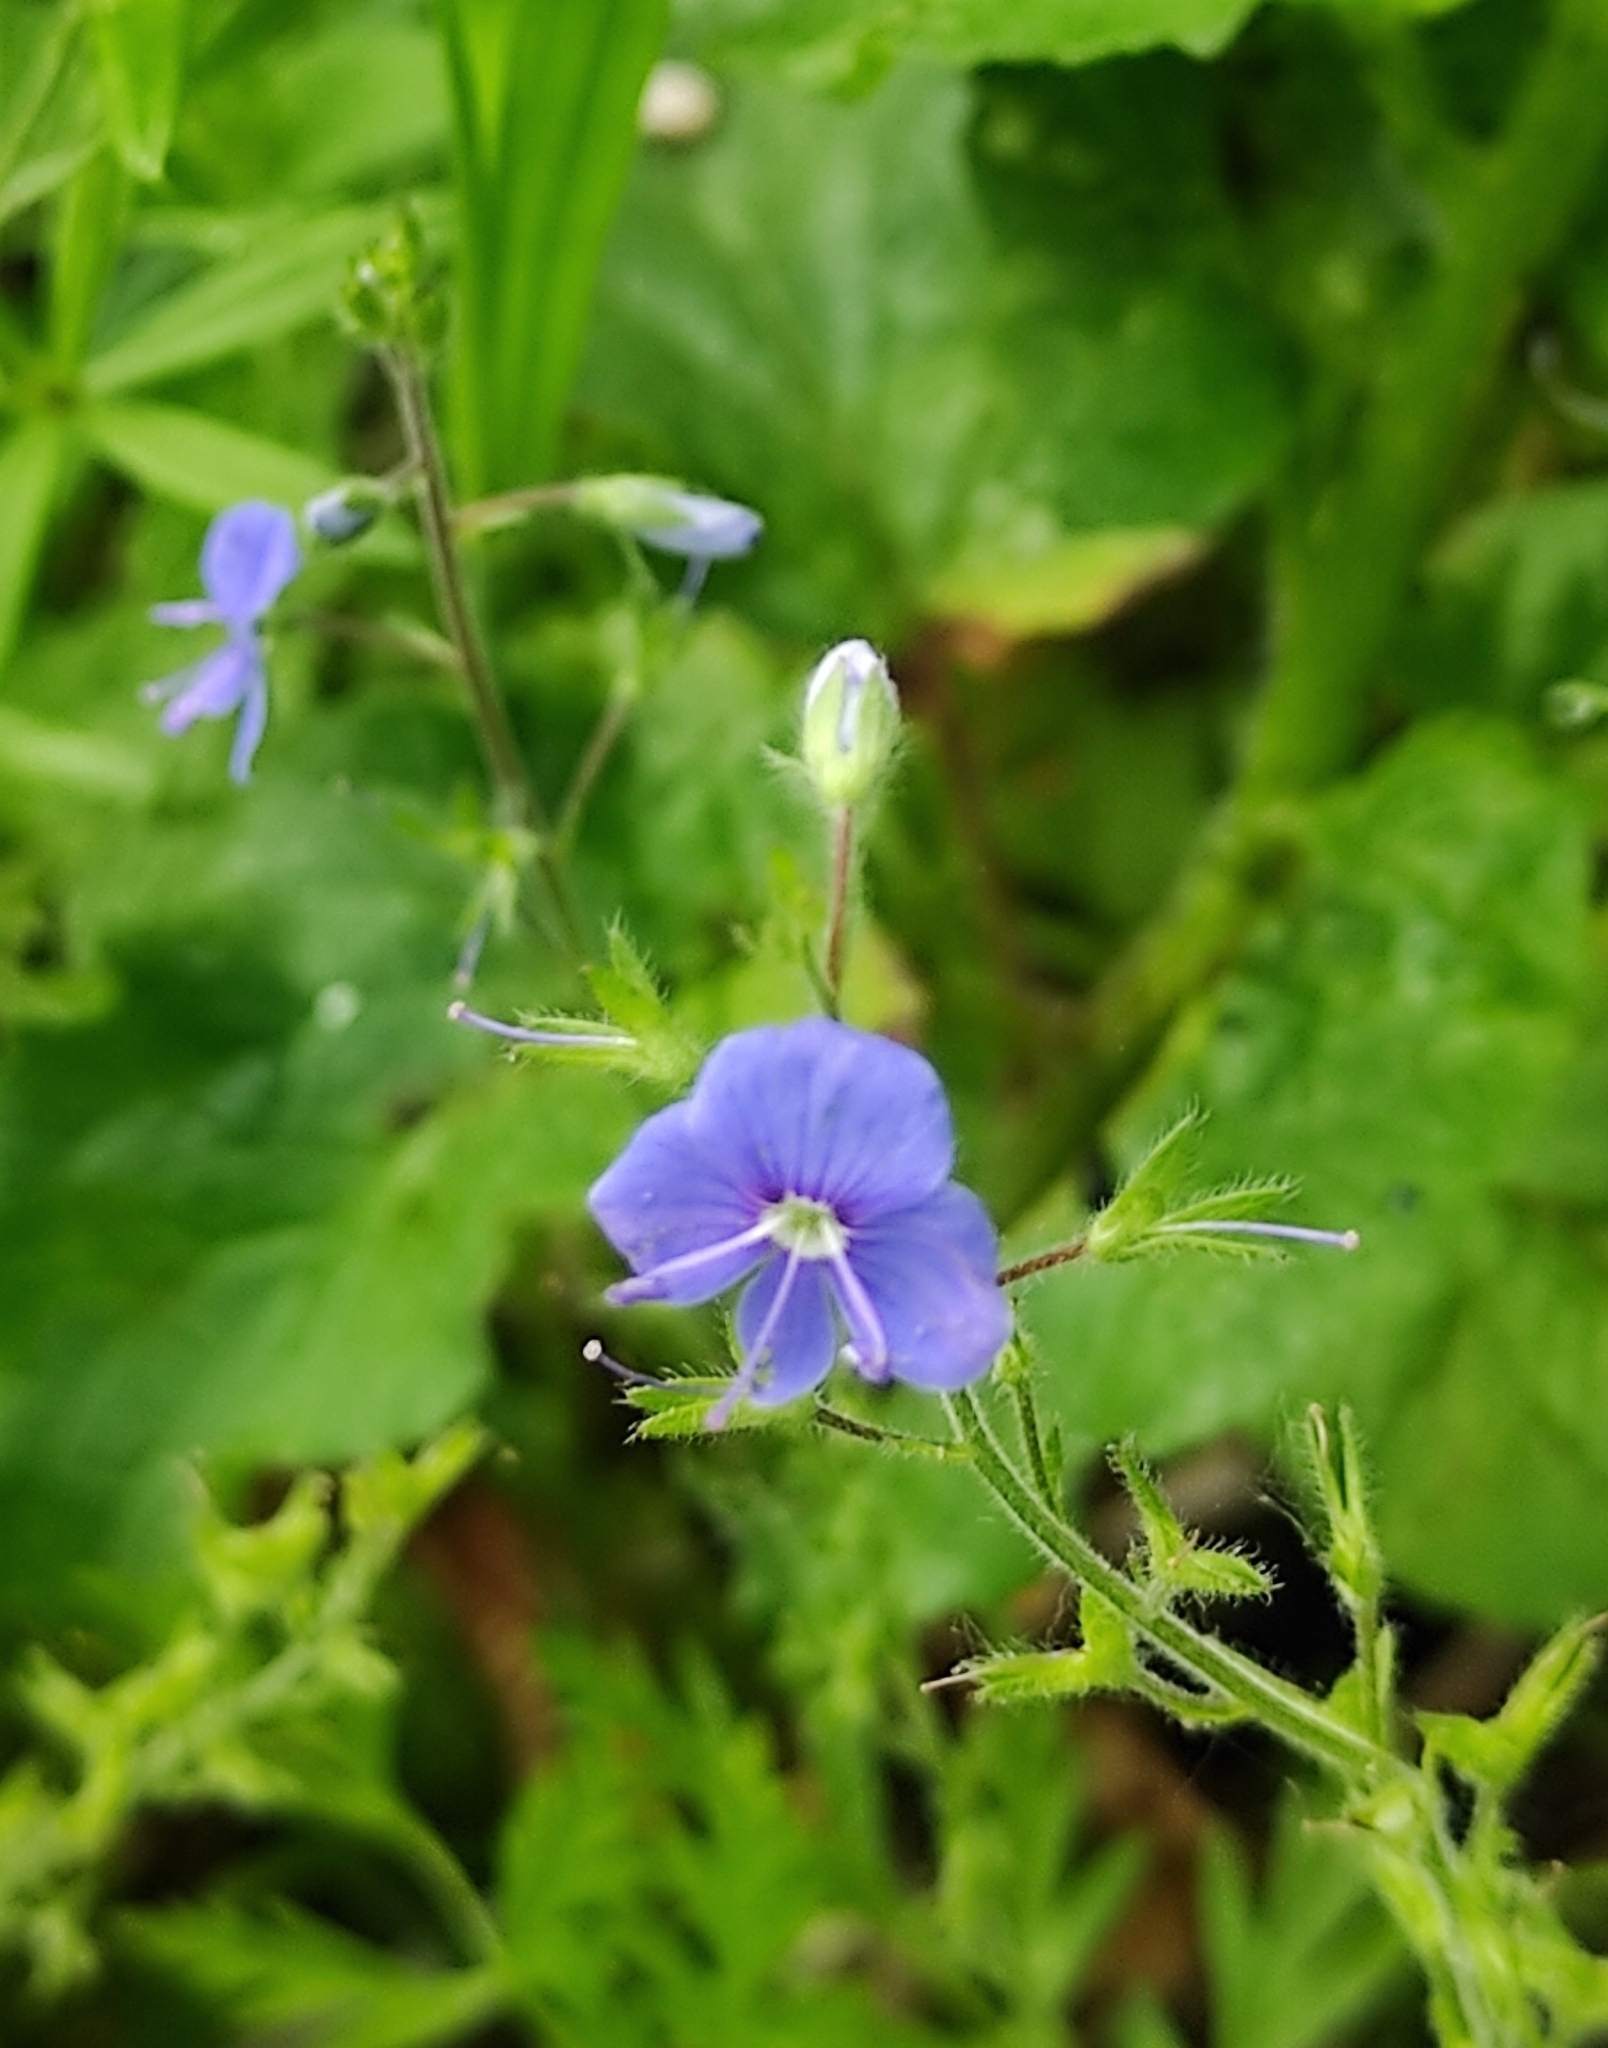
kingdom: Plantae
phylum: Tracheophyta
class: Magnoliopsida
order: Lamiales
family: Plantaginaceae
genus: Veronica
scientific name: Veronica chamaedrys
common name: Germander speedwell
